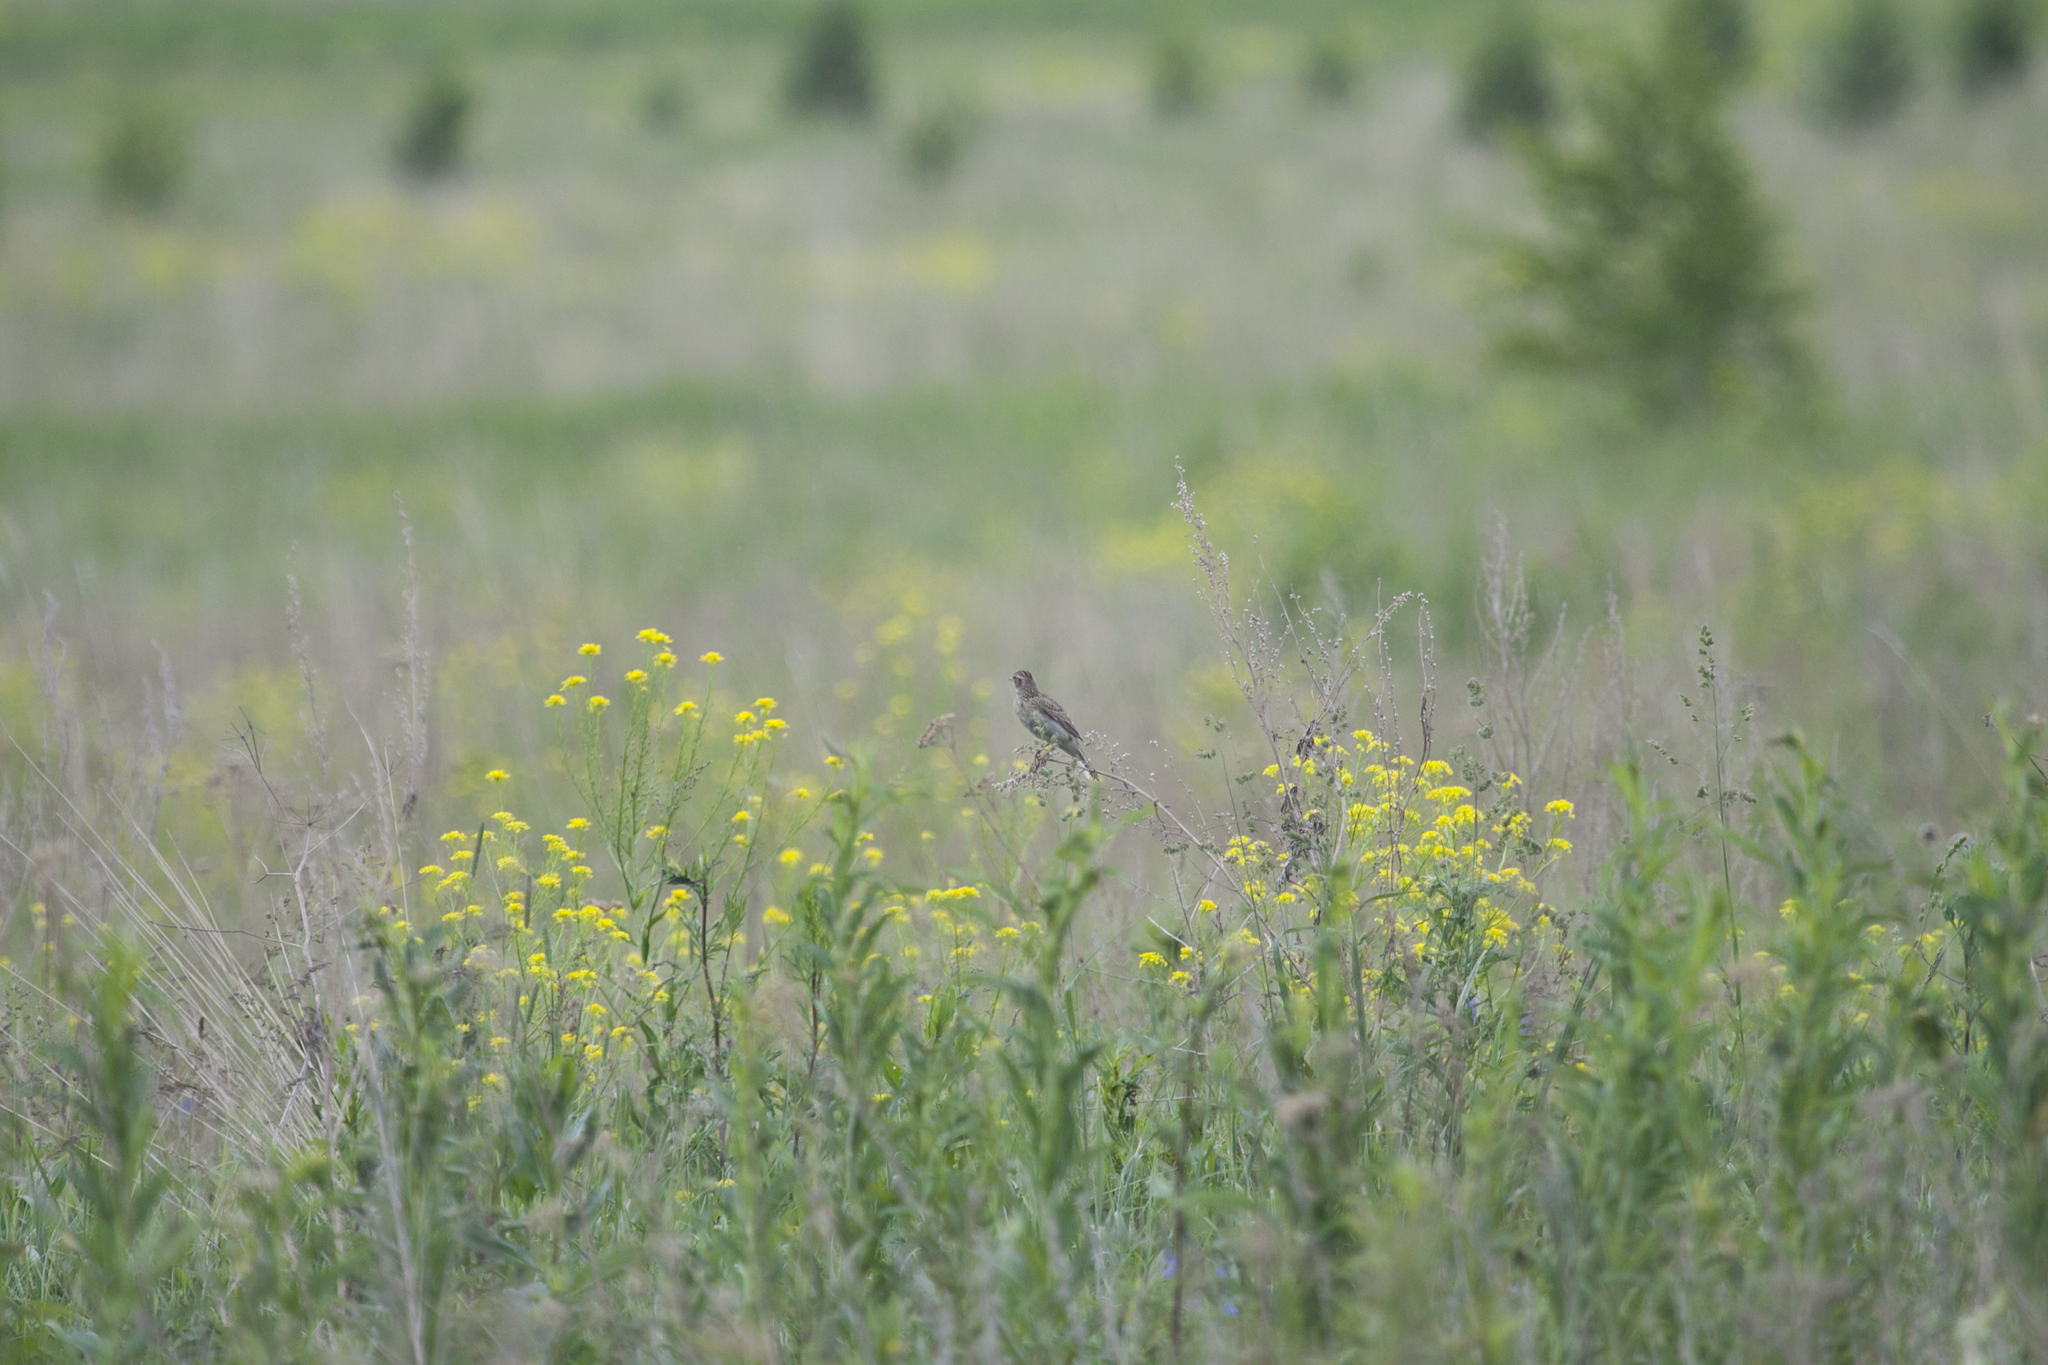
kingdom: Animalia
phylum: Chordata
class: Aves
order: Passeriformes
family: Alaudidae
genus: Alauda
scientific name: Alauda arvensis
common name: Eurasian skylark
